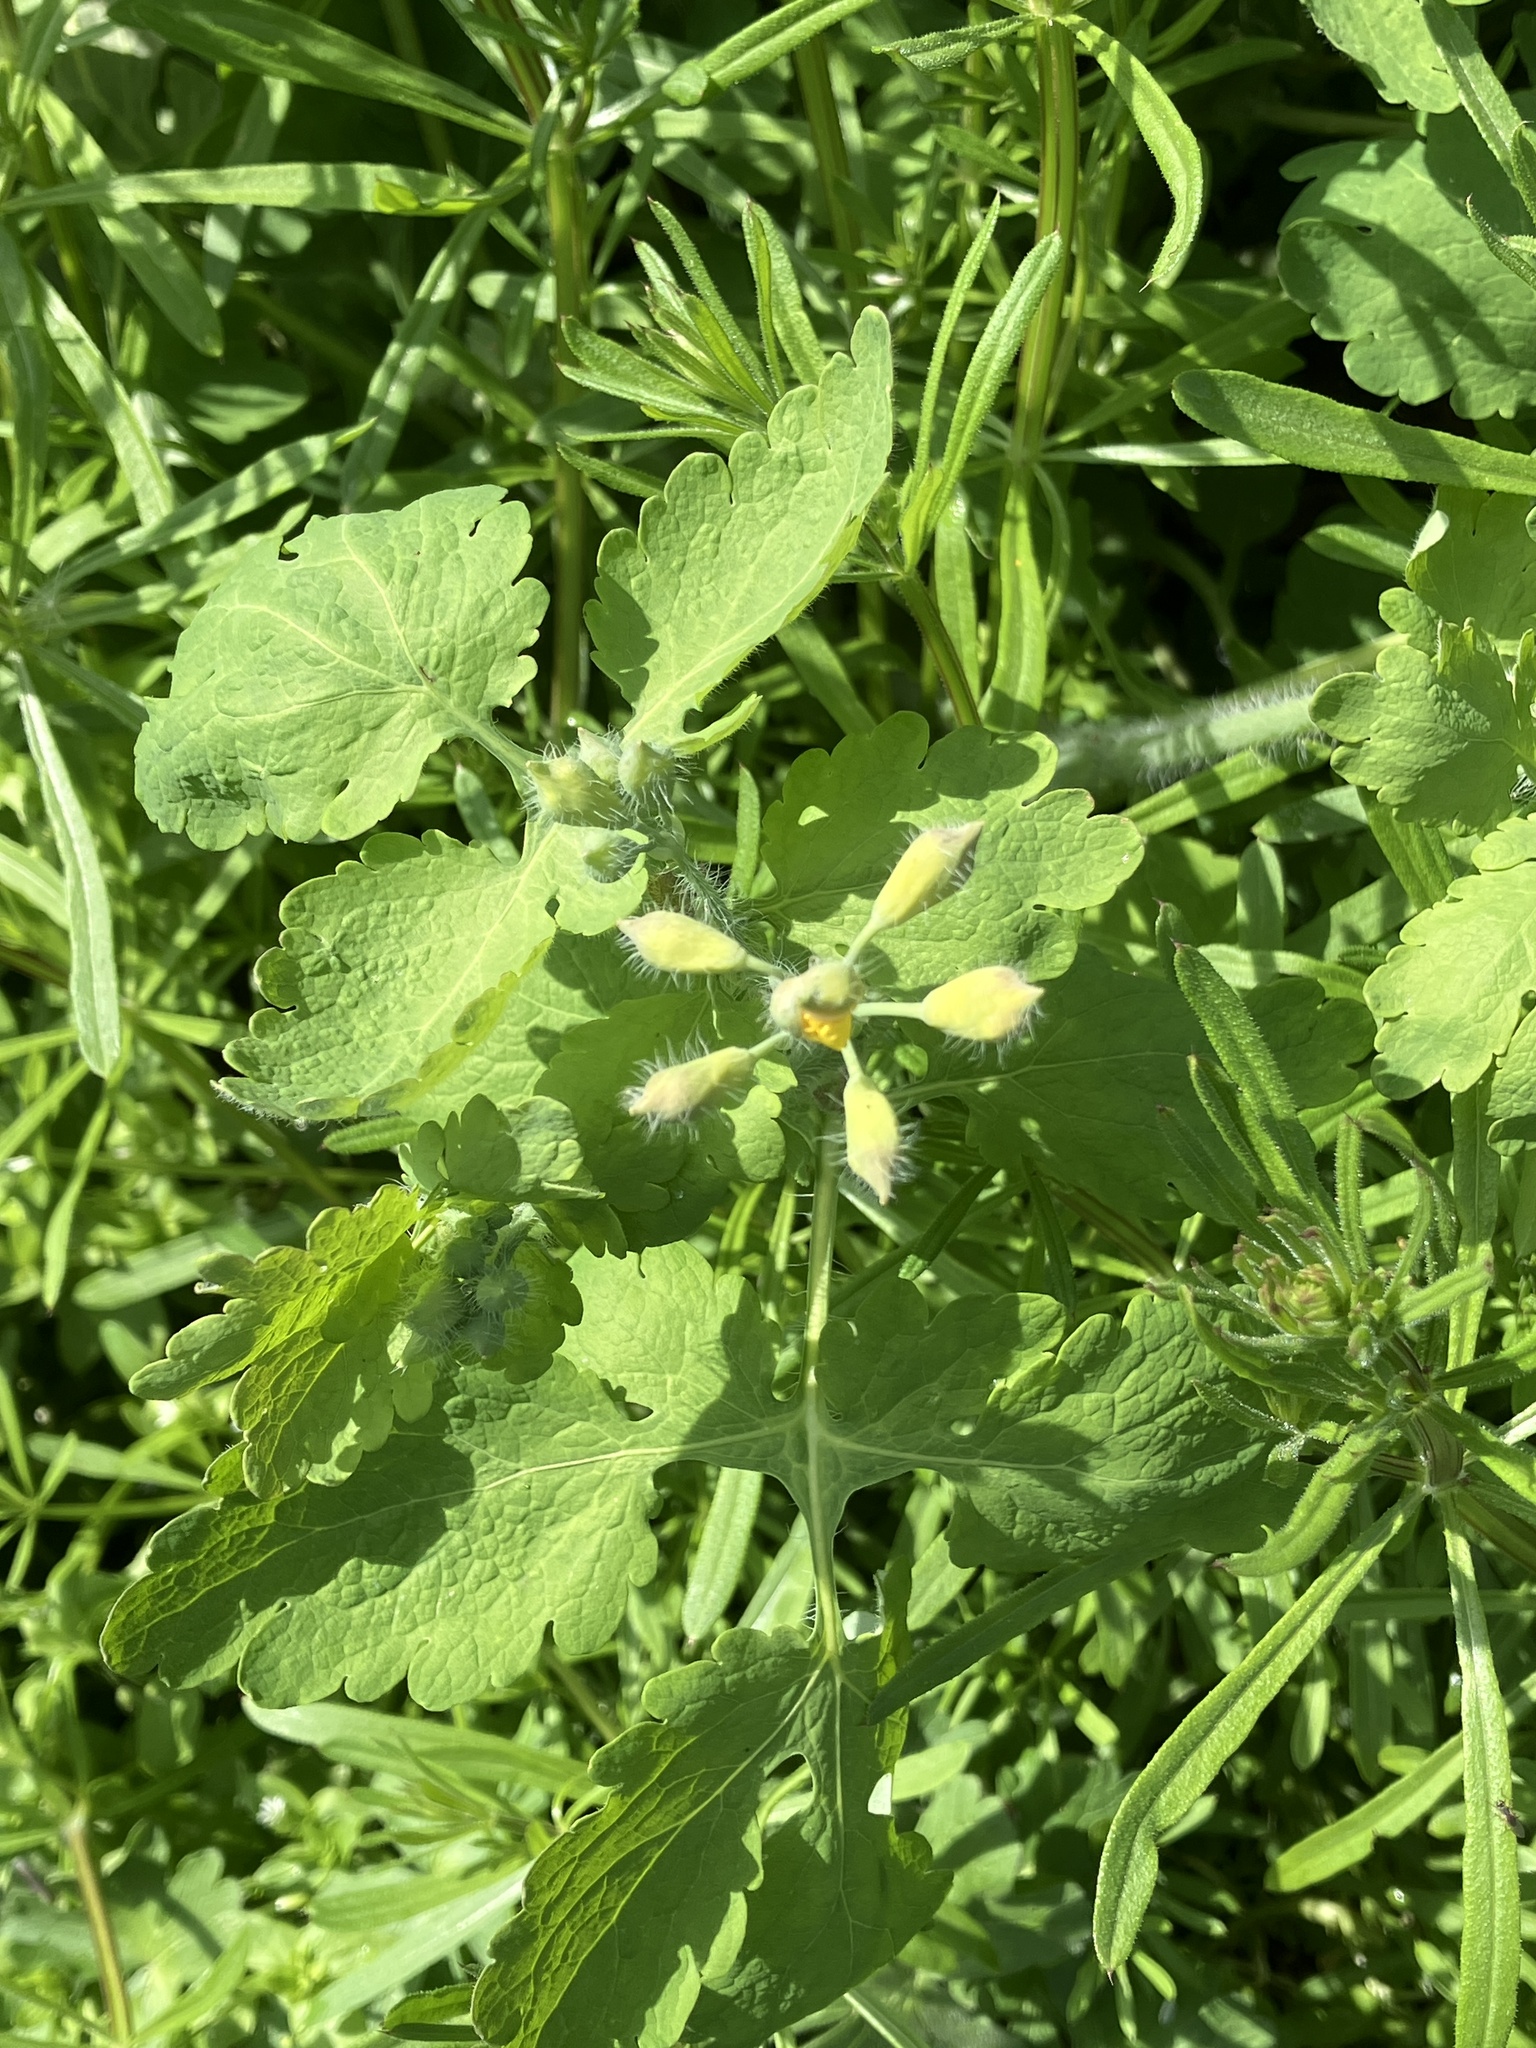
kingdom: Plantae
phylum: Tracheophyta
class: Magnoliopsida
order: Ranunculales
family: Papaveraceae
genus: Chelidonium
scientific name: Chelidonium majus
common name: Greater celandine
